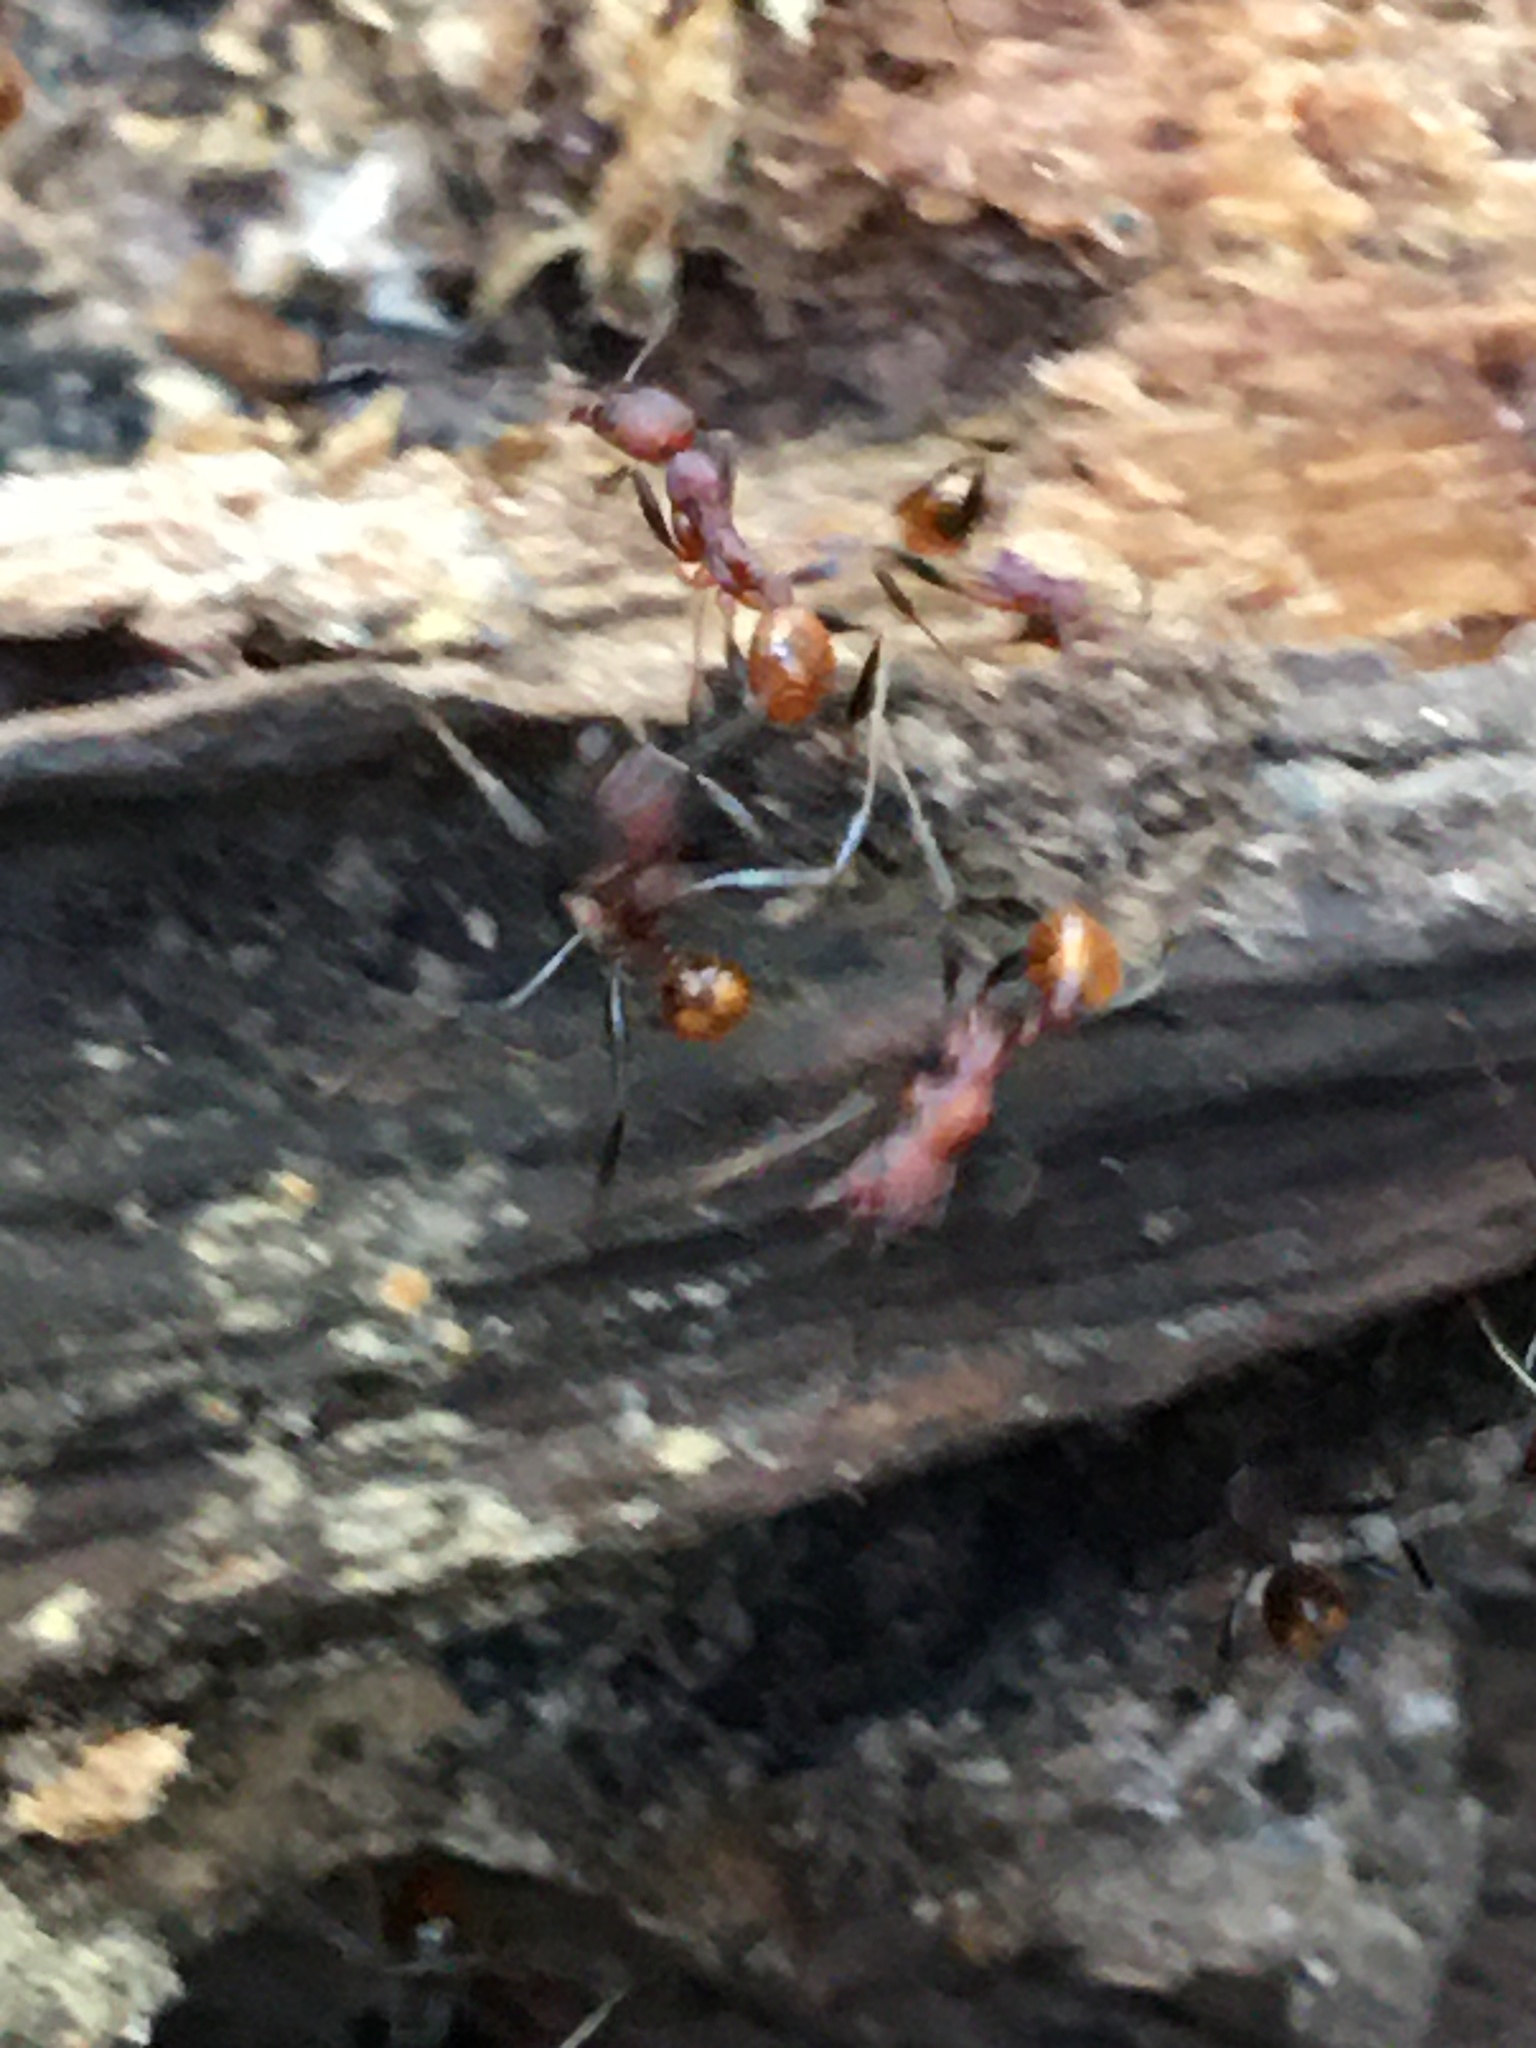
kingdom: Animalia
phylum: Arthropoda
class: Insecta
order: Hymenoptera
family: Formicidae
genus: Aphaenogaster
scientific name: Aphaenogaster lamellidens
